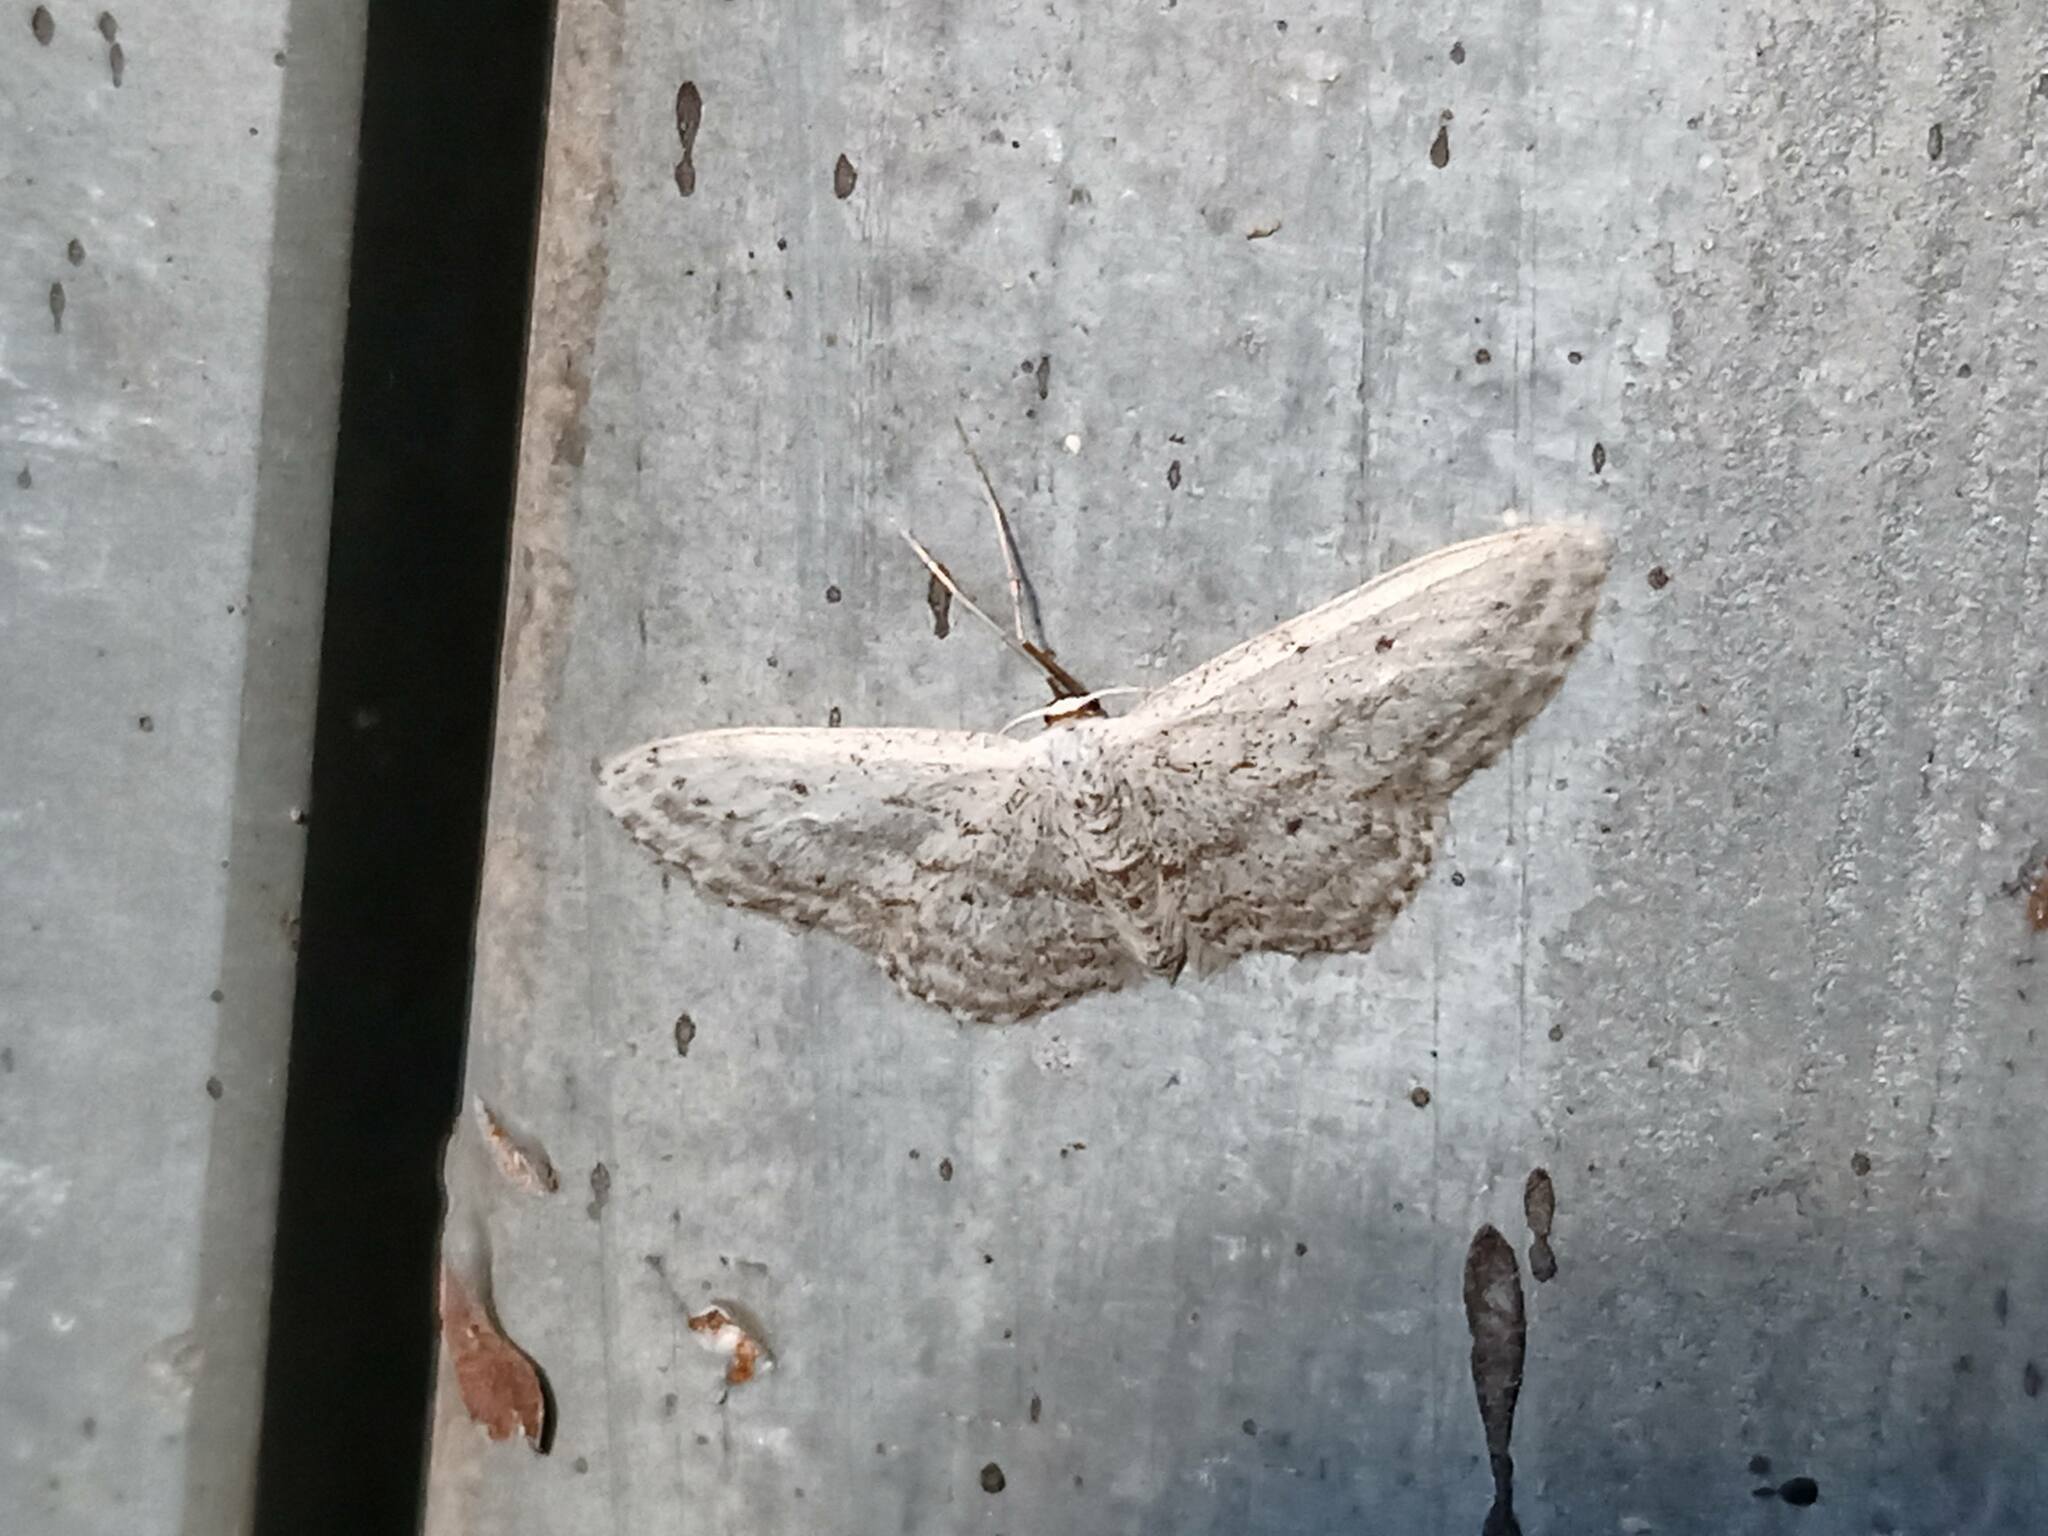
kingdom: Animalia
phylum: Arthropoda
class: Insecta
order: Lepidoptera
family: Geometridae
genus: Idaea
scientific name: Idaea seriata
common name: Small dusty wave
